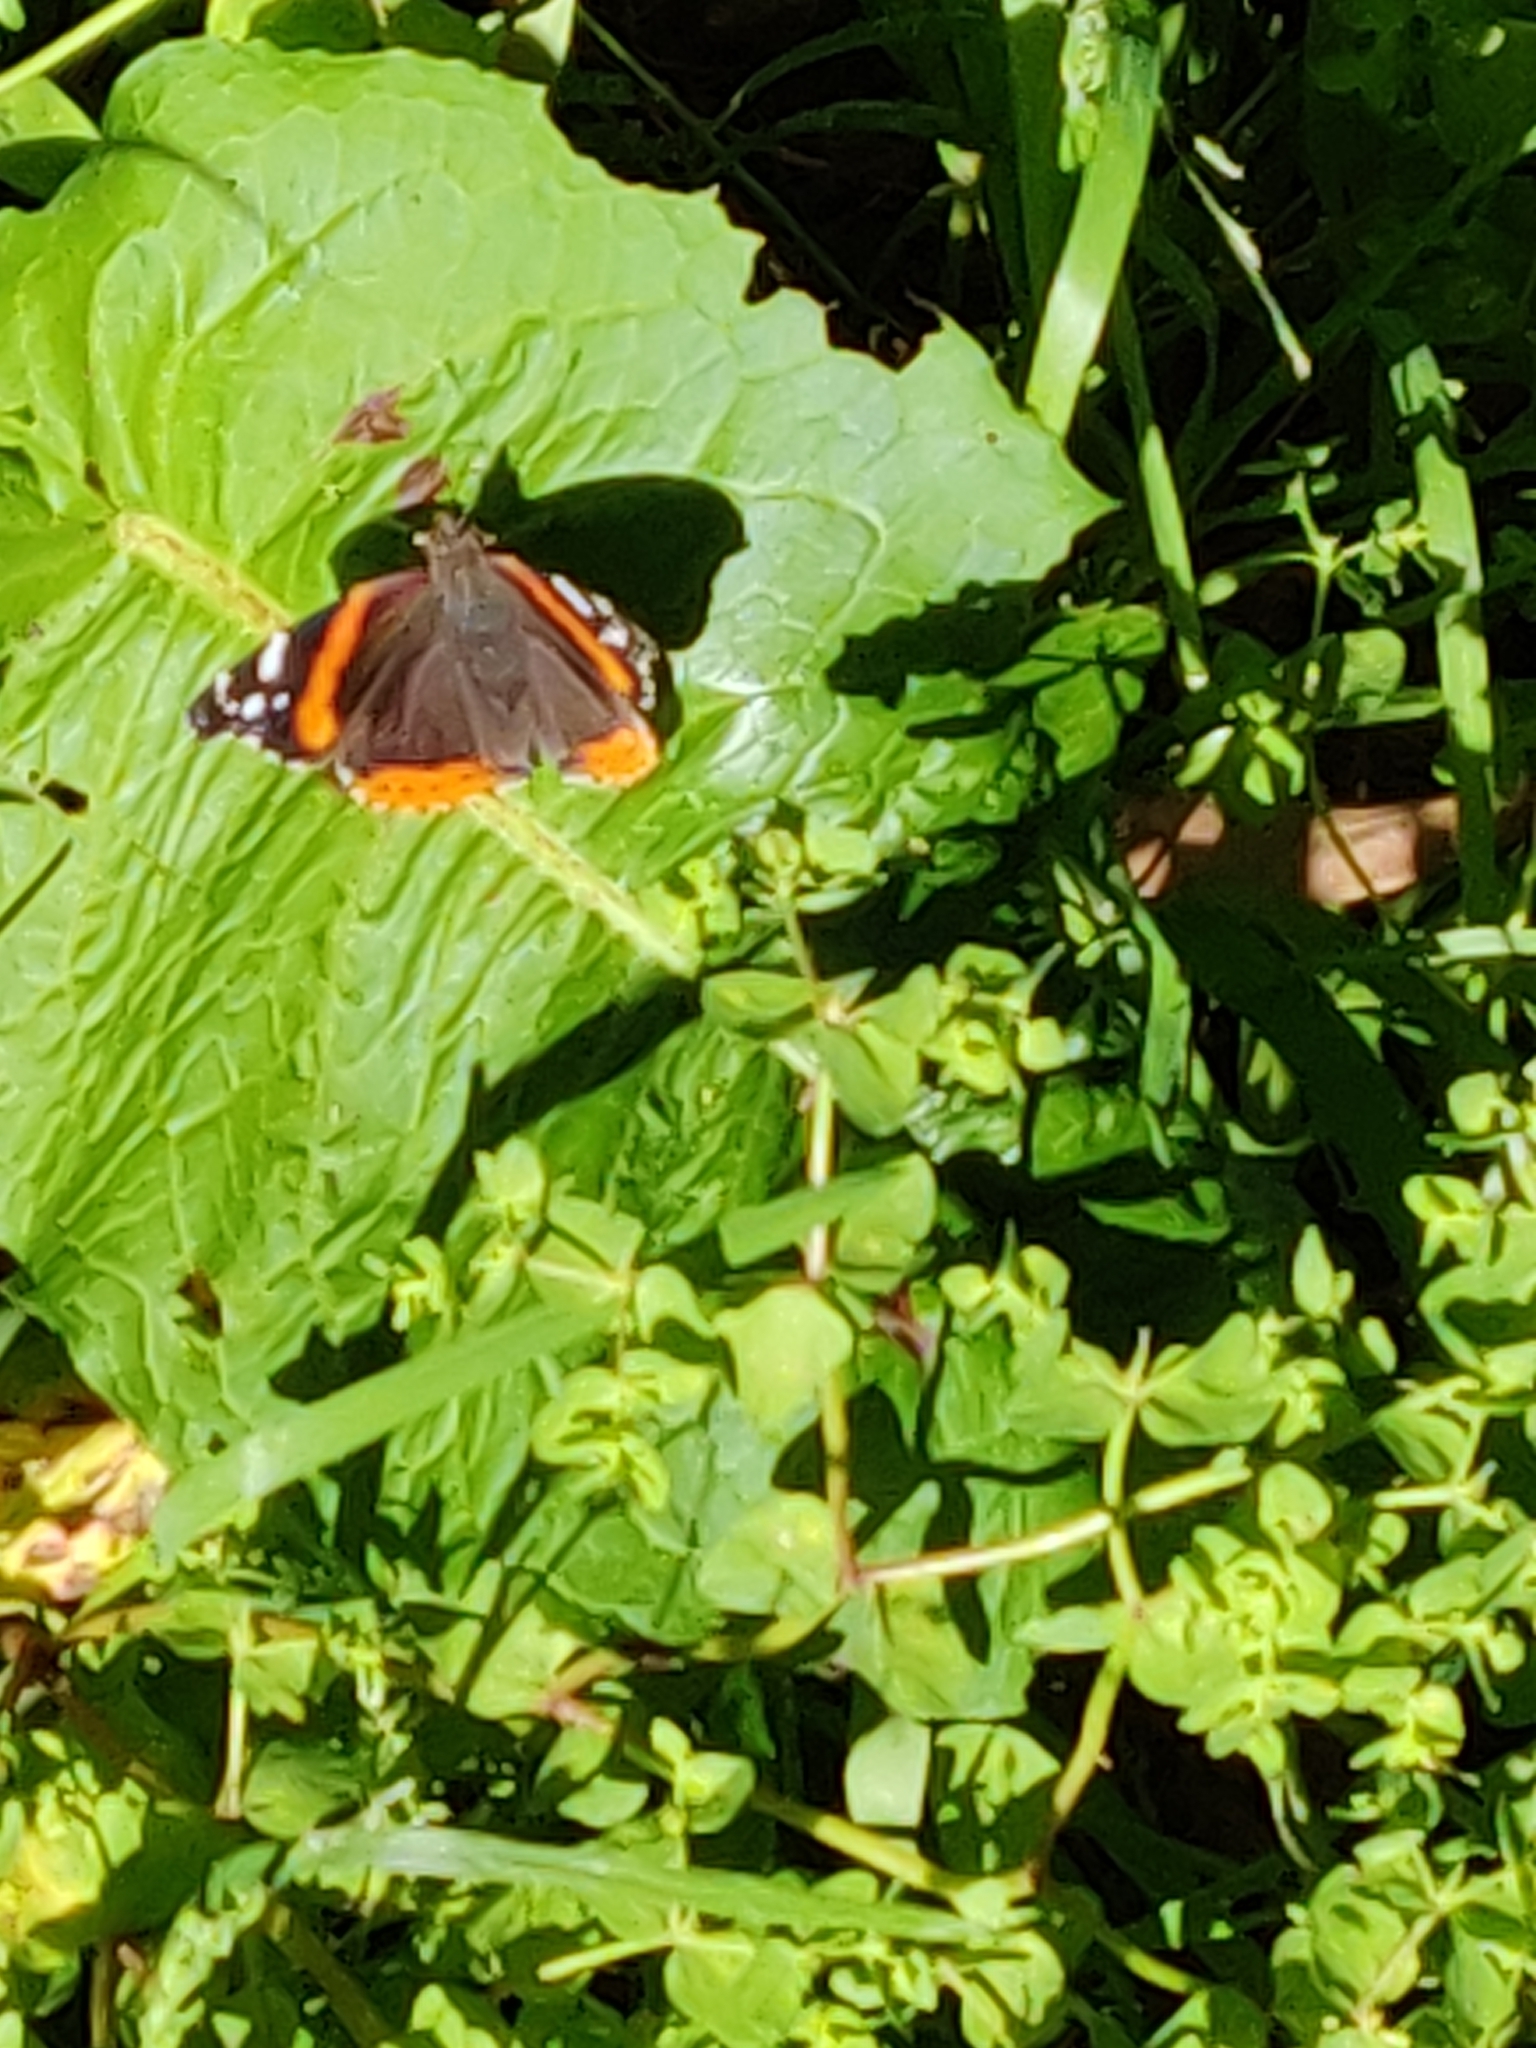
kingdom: Animalia
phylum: Arthropoda
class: Insecta
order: Lepidoptera
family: Nymphalidae
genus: Vanessa
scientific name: Vanessa atalanta
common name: Red admiral
